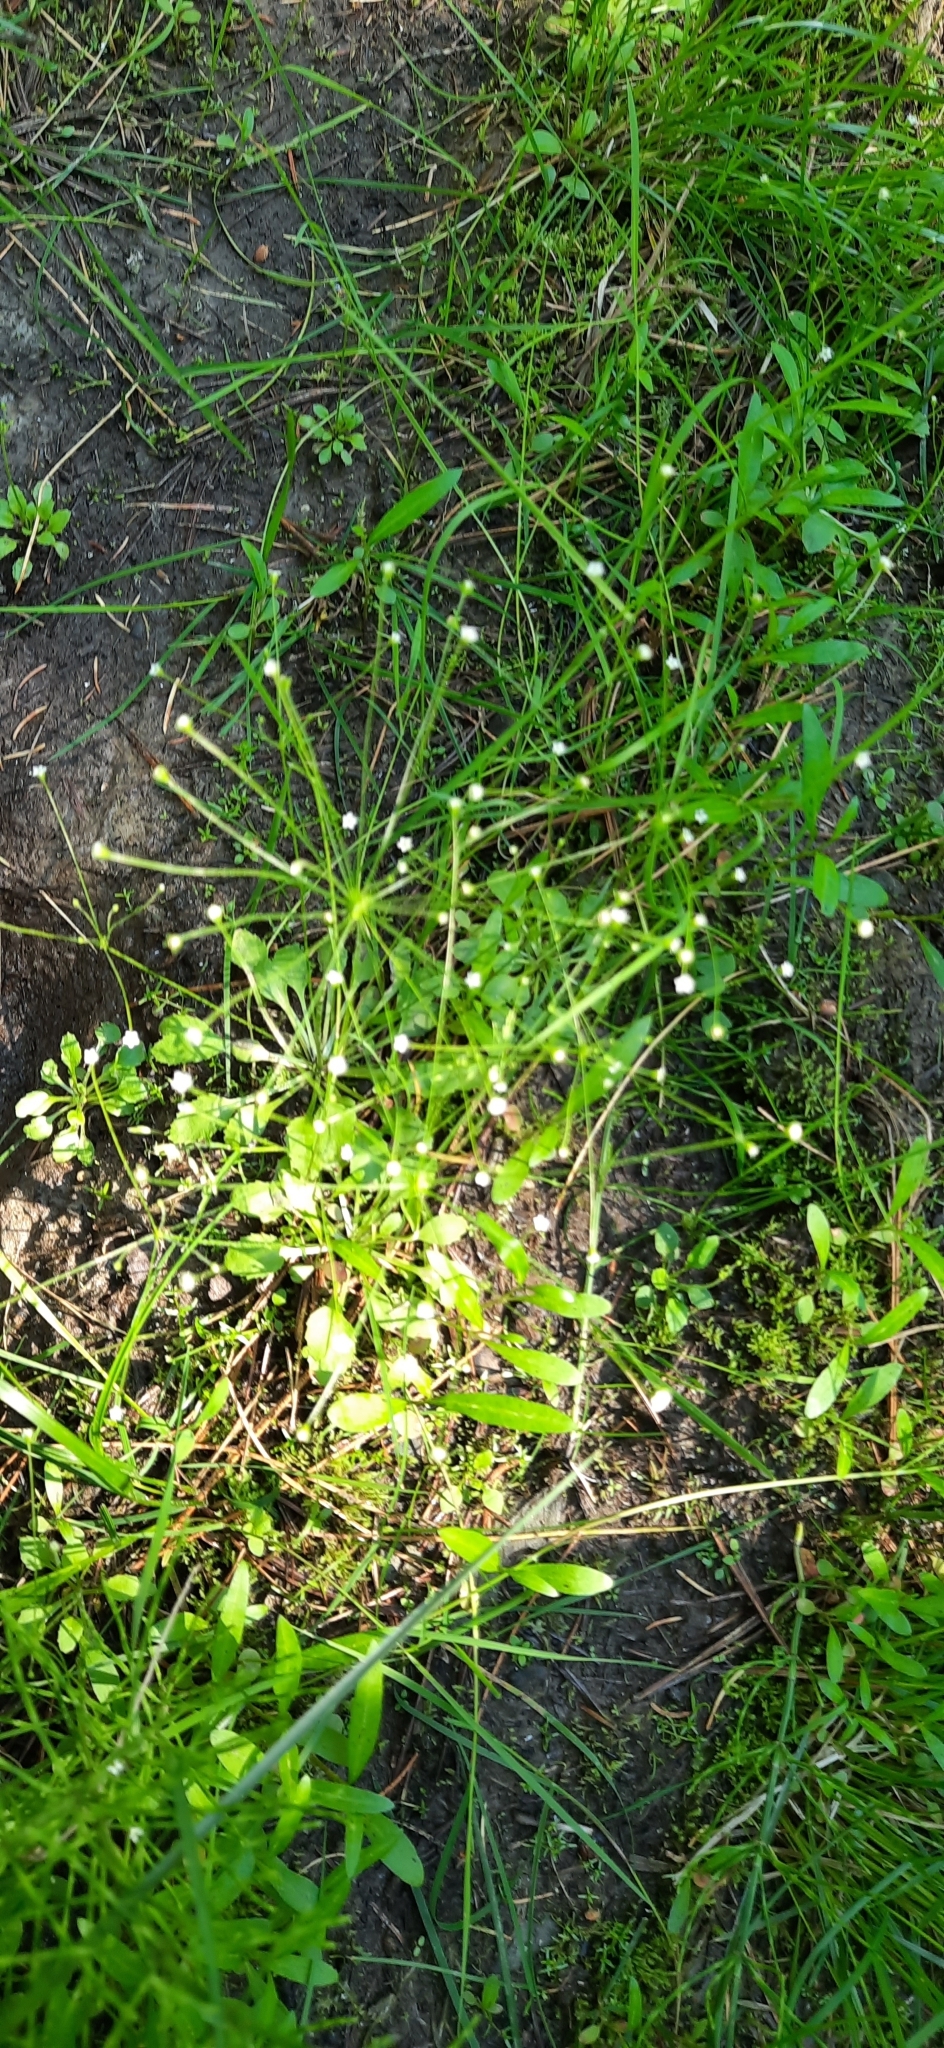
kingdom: Plantae
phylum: Tracheophyta
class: Magnoliopsida
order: Ericales
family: Primulaceae
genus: Androsace
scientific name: Androsace filiformis
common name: Filiform rock jasmine
